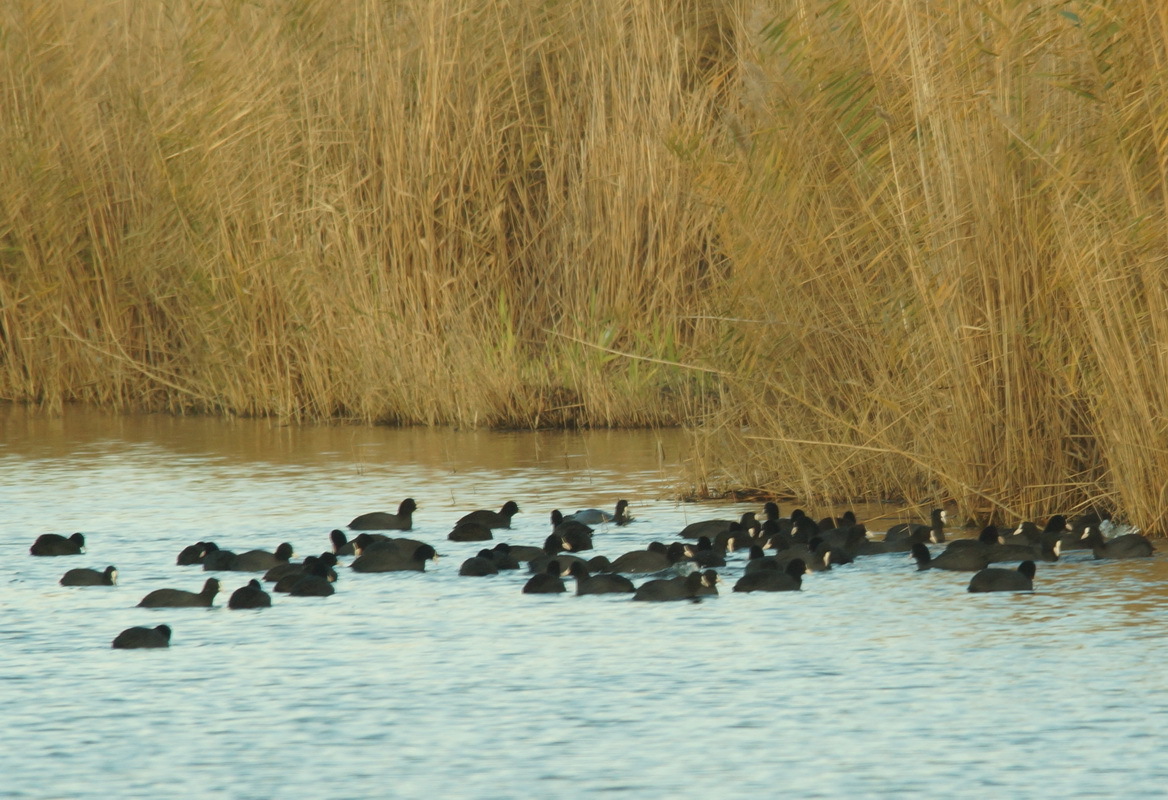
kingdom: Animalia
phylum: Chordata
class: Aves
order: Gruiformes
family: Rallidae
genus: Fulica
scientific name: Fulica atra
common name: Eurasian coot
